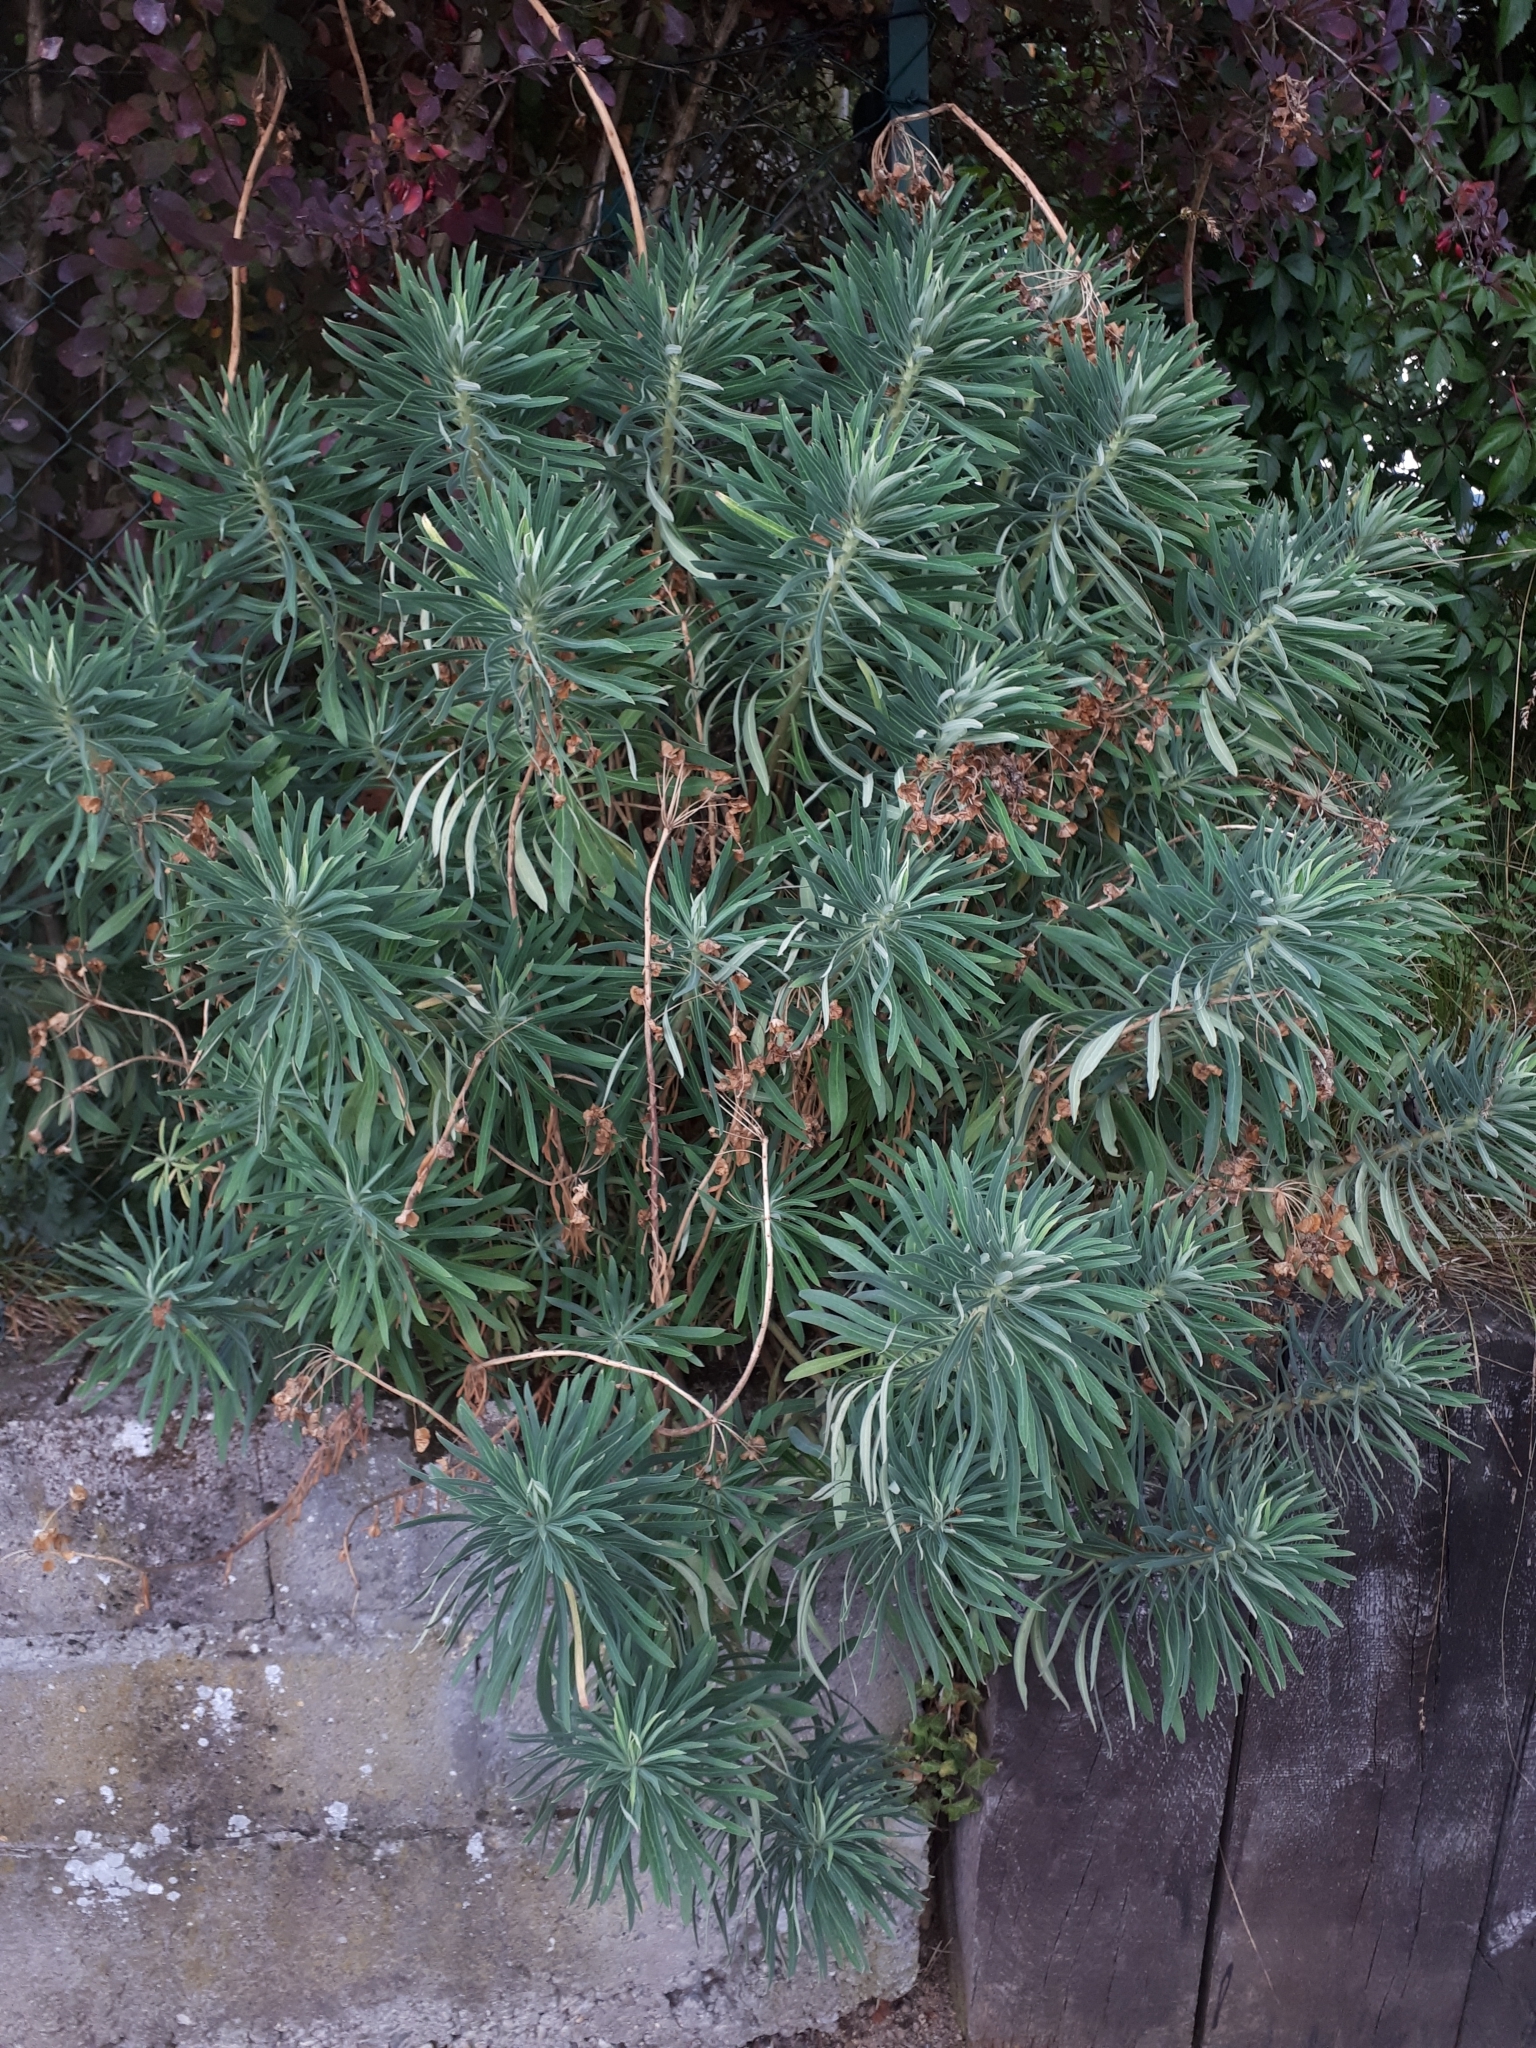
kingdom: Plantae
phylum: Tracheophyta
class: Magnoliopsida
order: Malpighiales
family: Euphorbiaceae
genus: Euphorbia
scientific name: Euphorbia characias
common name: Mediterranean spurge
